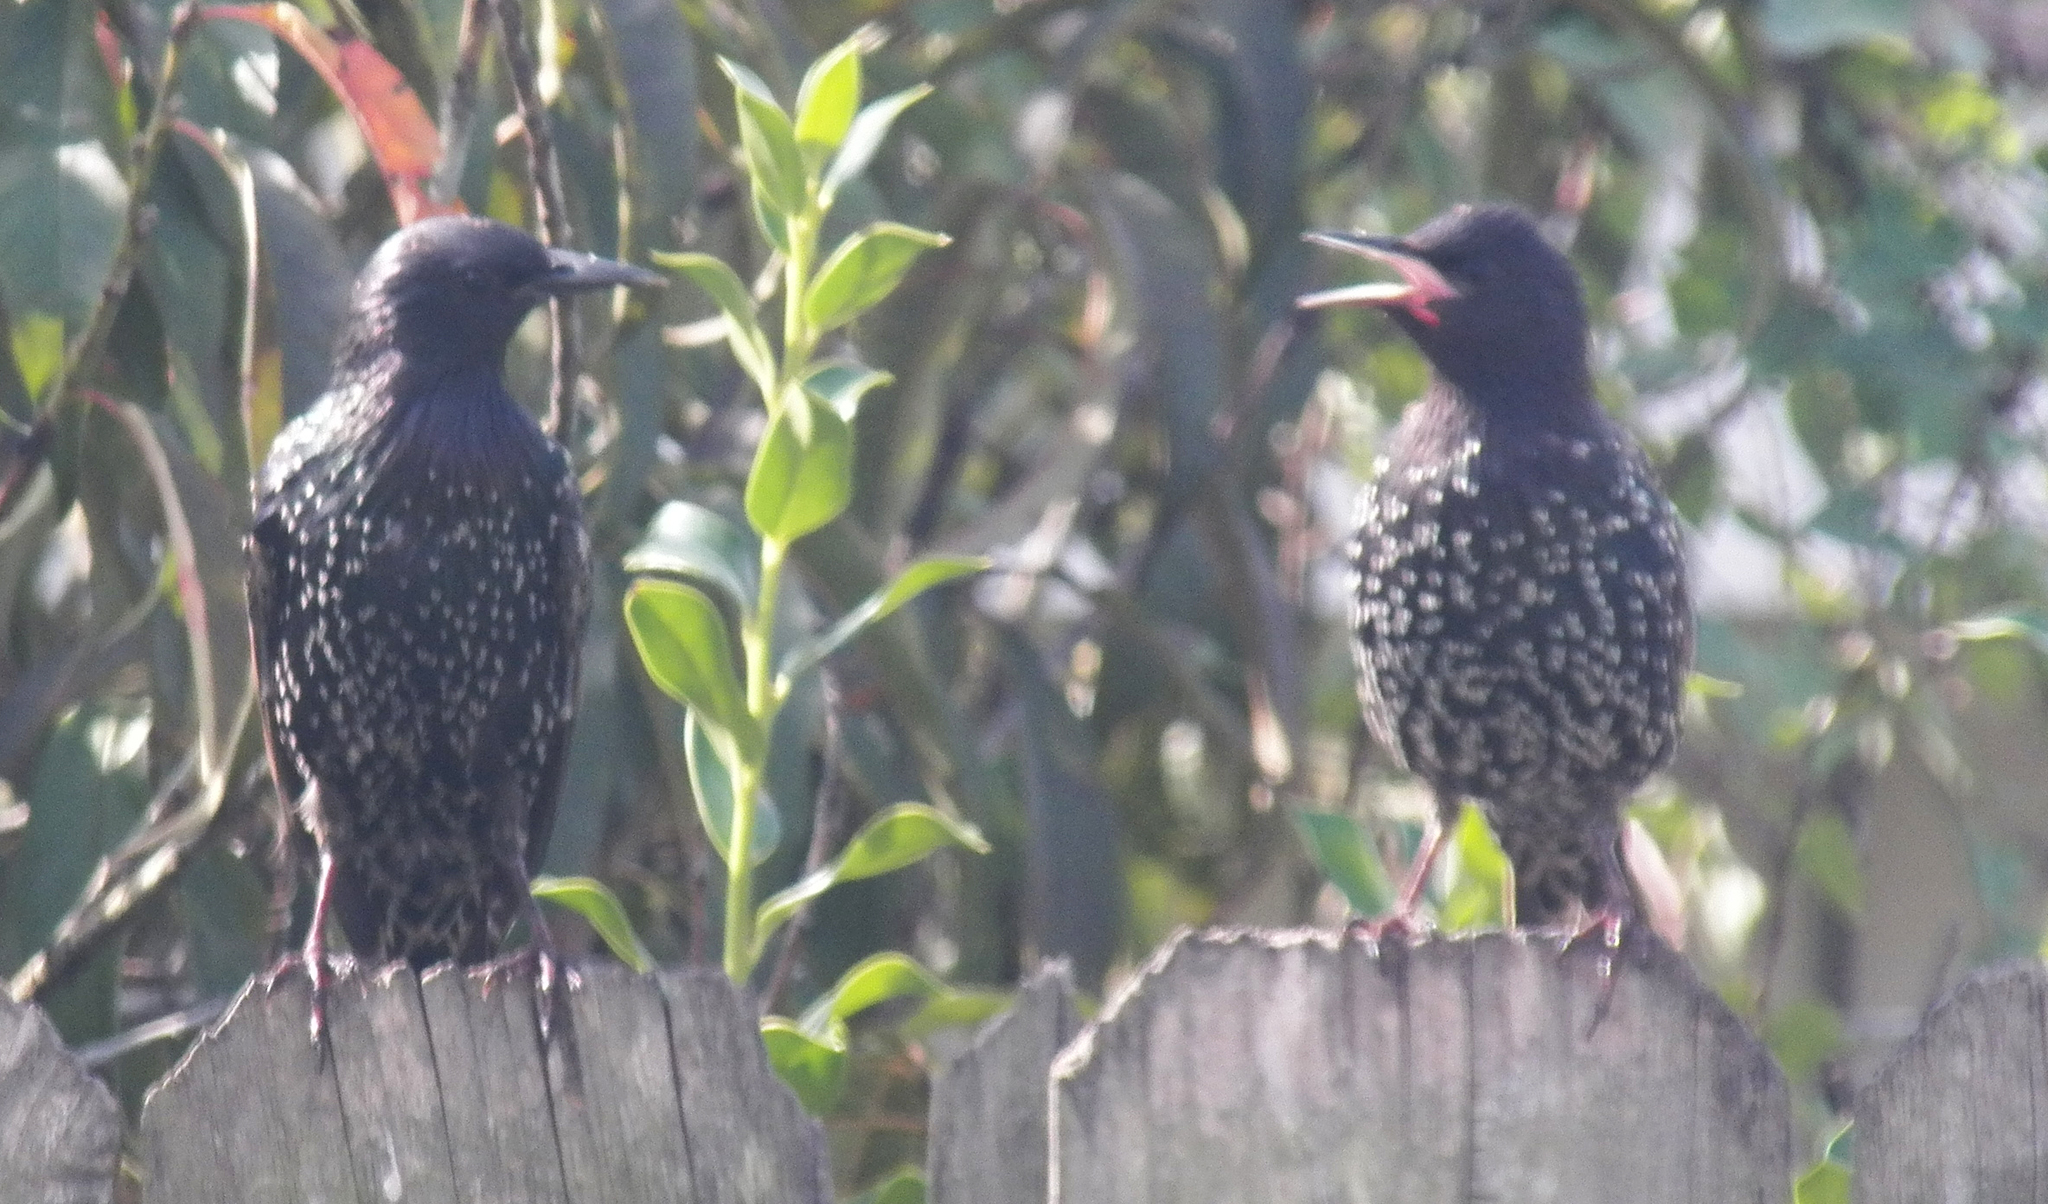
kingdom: Animalia
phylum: Chordata
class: Aves
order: Passeriformes
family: Sturnidae
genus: Sturnus
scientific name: Sturnus vulgaris
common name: Common starling
